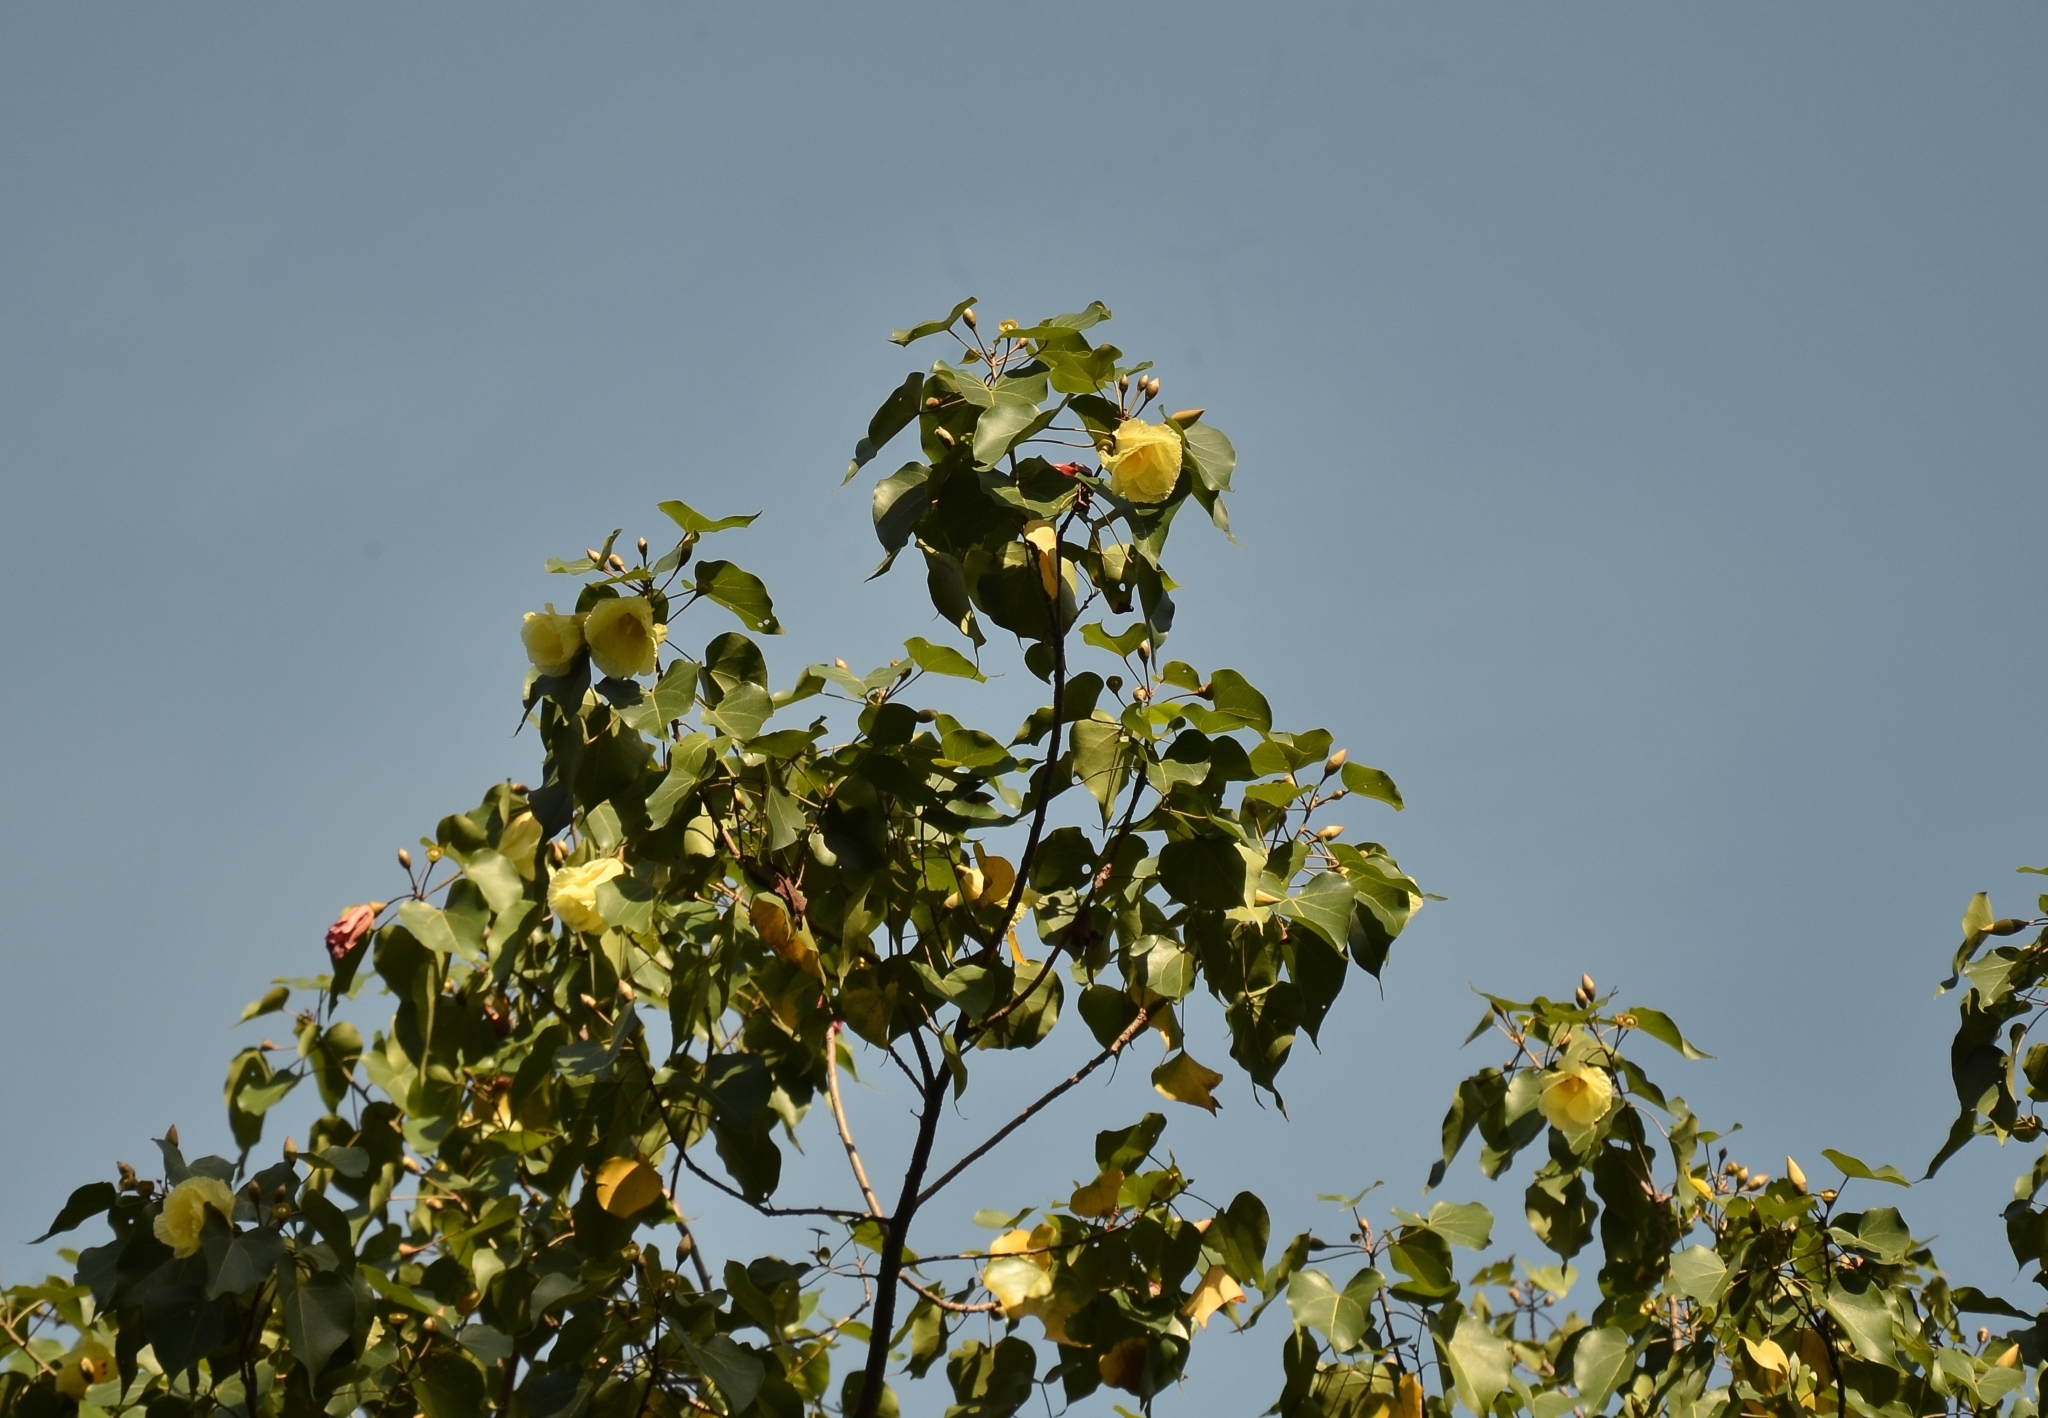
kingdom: Plantae
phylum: Tracheophyta
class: Magnoliopsida
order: Malvales
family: Malvaceae
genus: Thespesia
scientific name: Thespesia populnea
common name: Seaside mahoe
